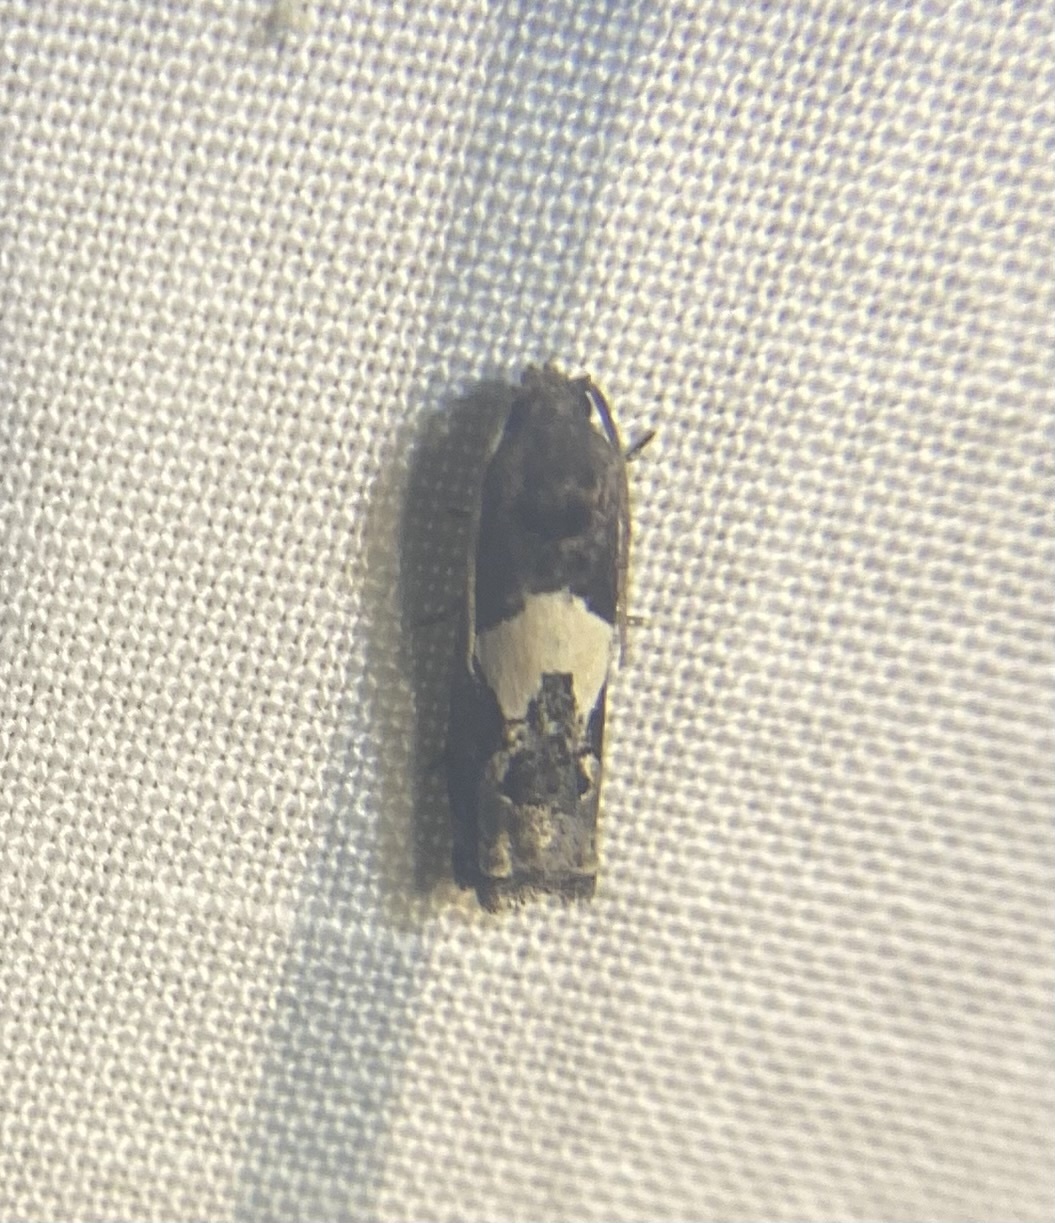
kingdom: Animalia
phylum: Arthropoda
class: Insecta
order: Lepidoptera
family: Tortricidae
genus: Epiblema
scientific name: Epiblema otiosana
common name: Bidens borer moth
